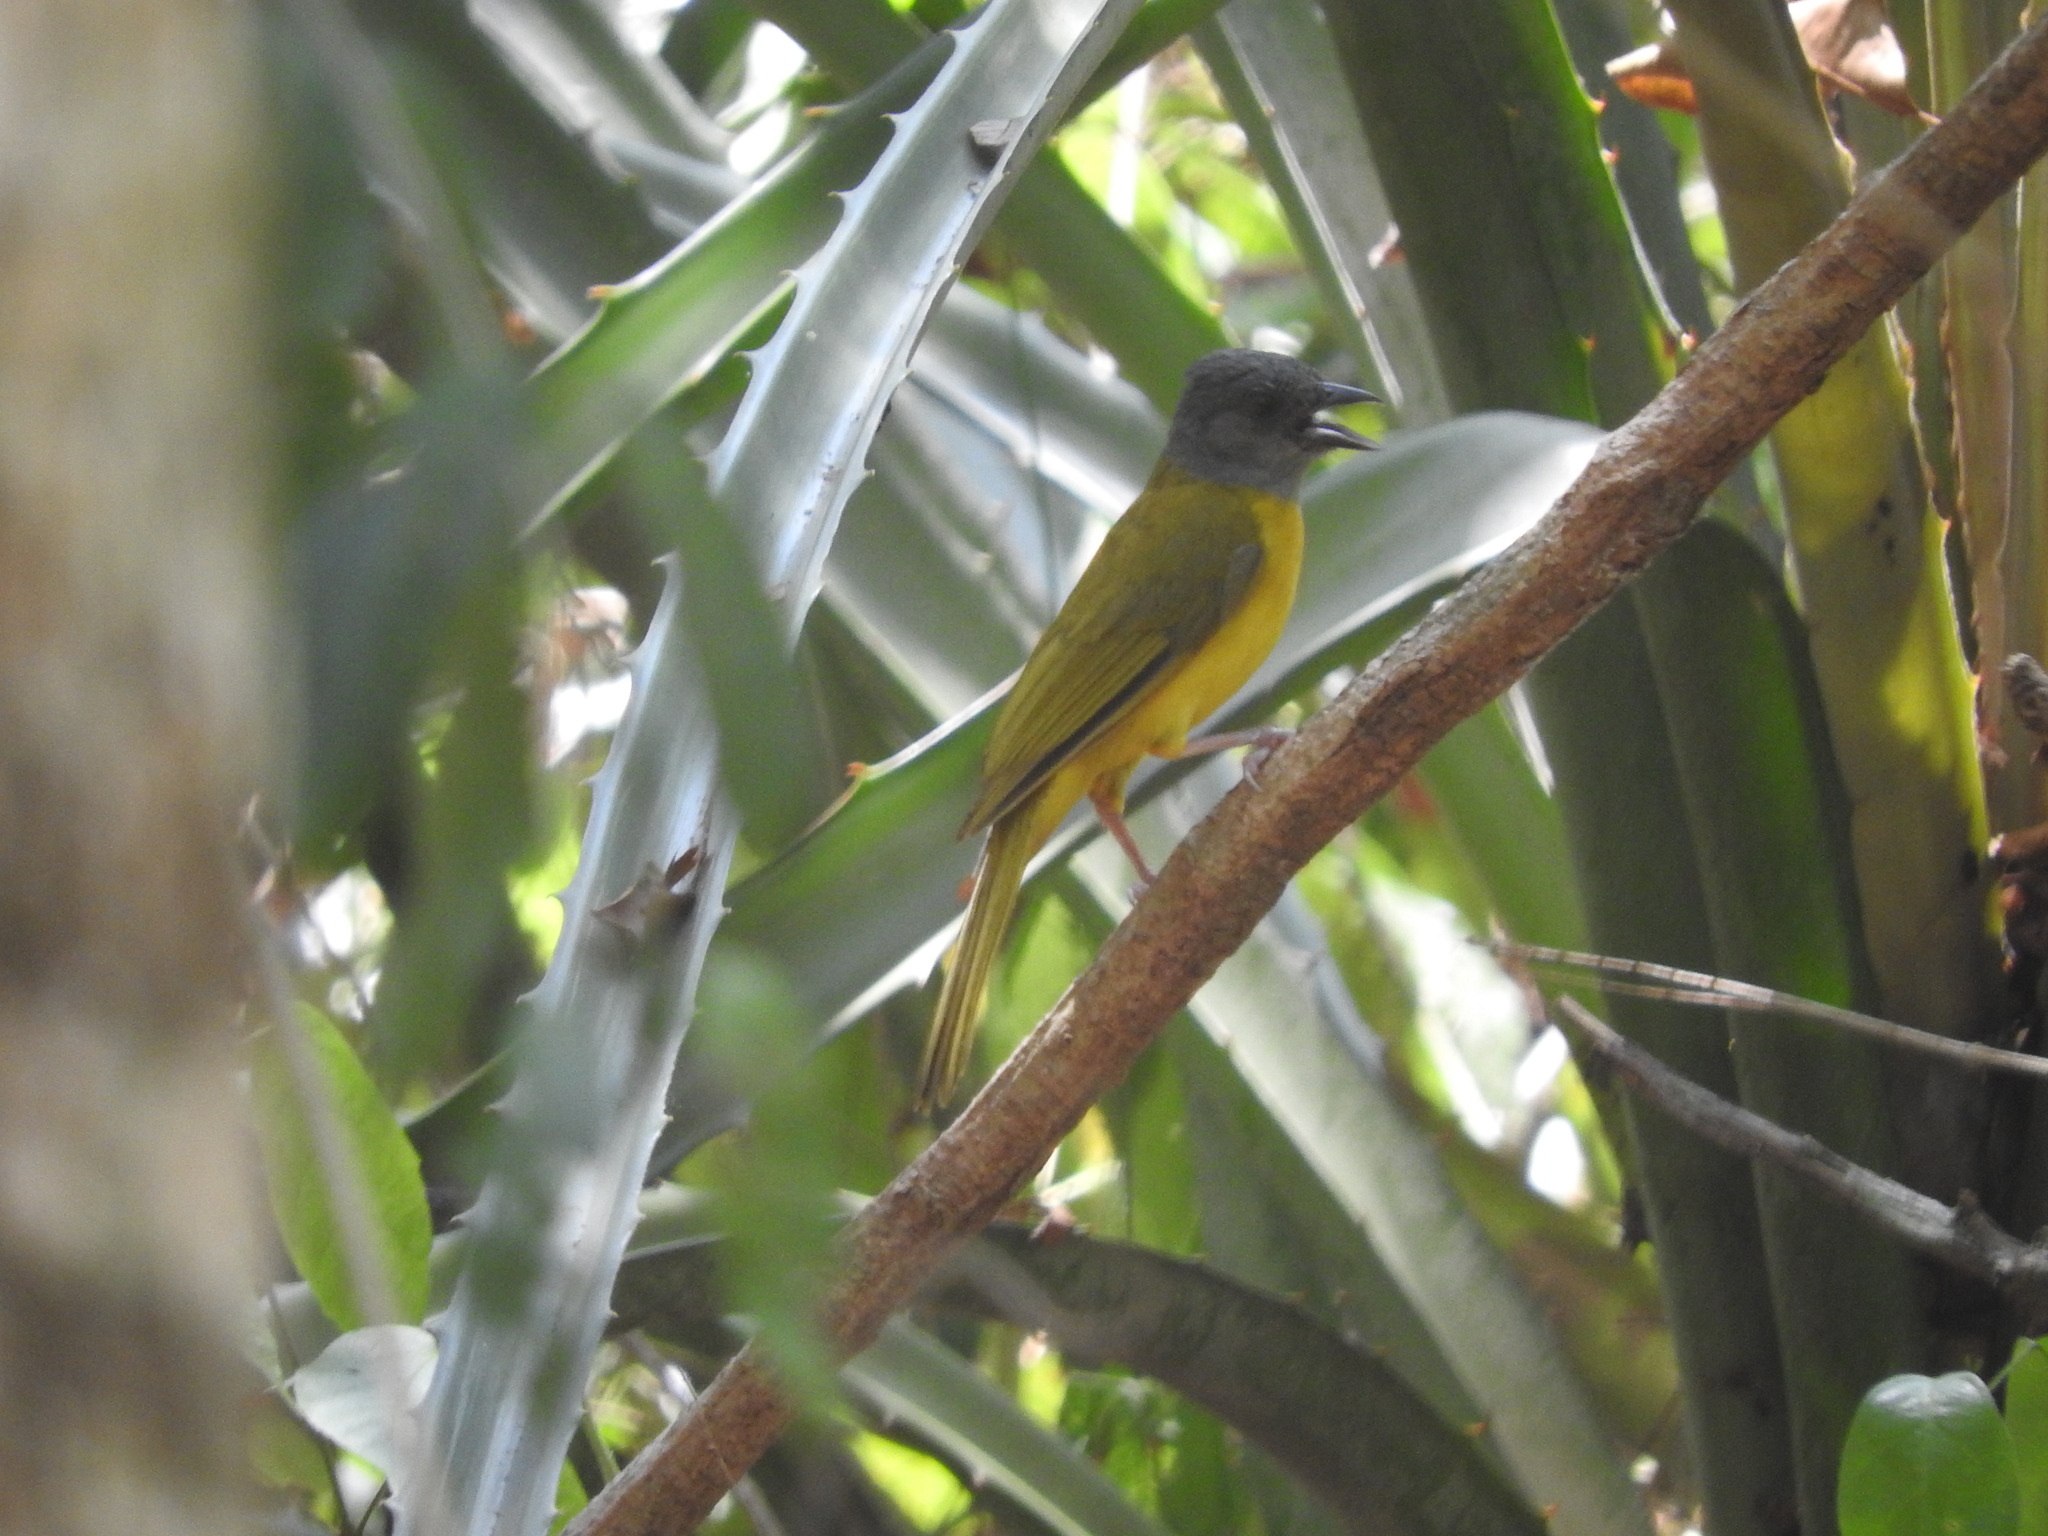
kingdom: Animalia
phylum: Chordata
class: Aves
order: Passeriformes
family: Thraupidae
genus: Eucometis
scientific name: Eucometis penicillata
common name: Grey-headed tanager
